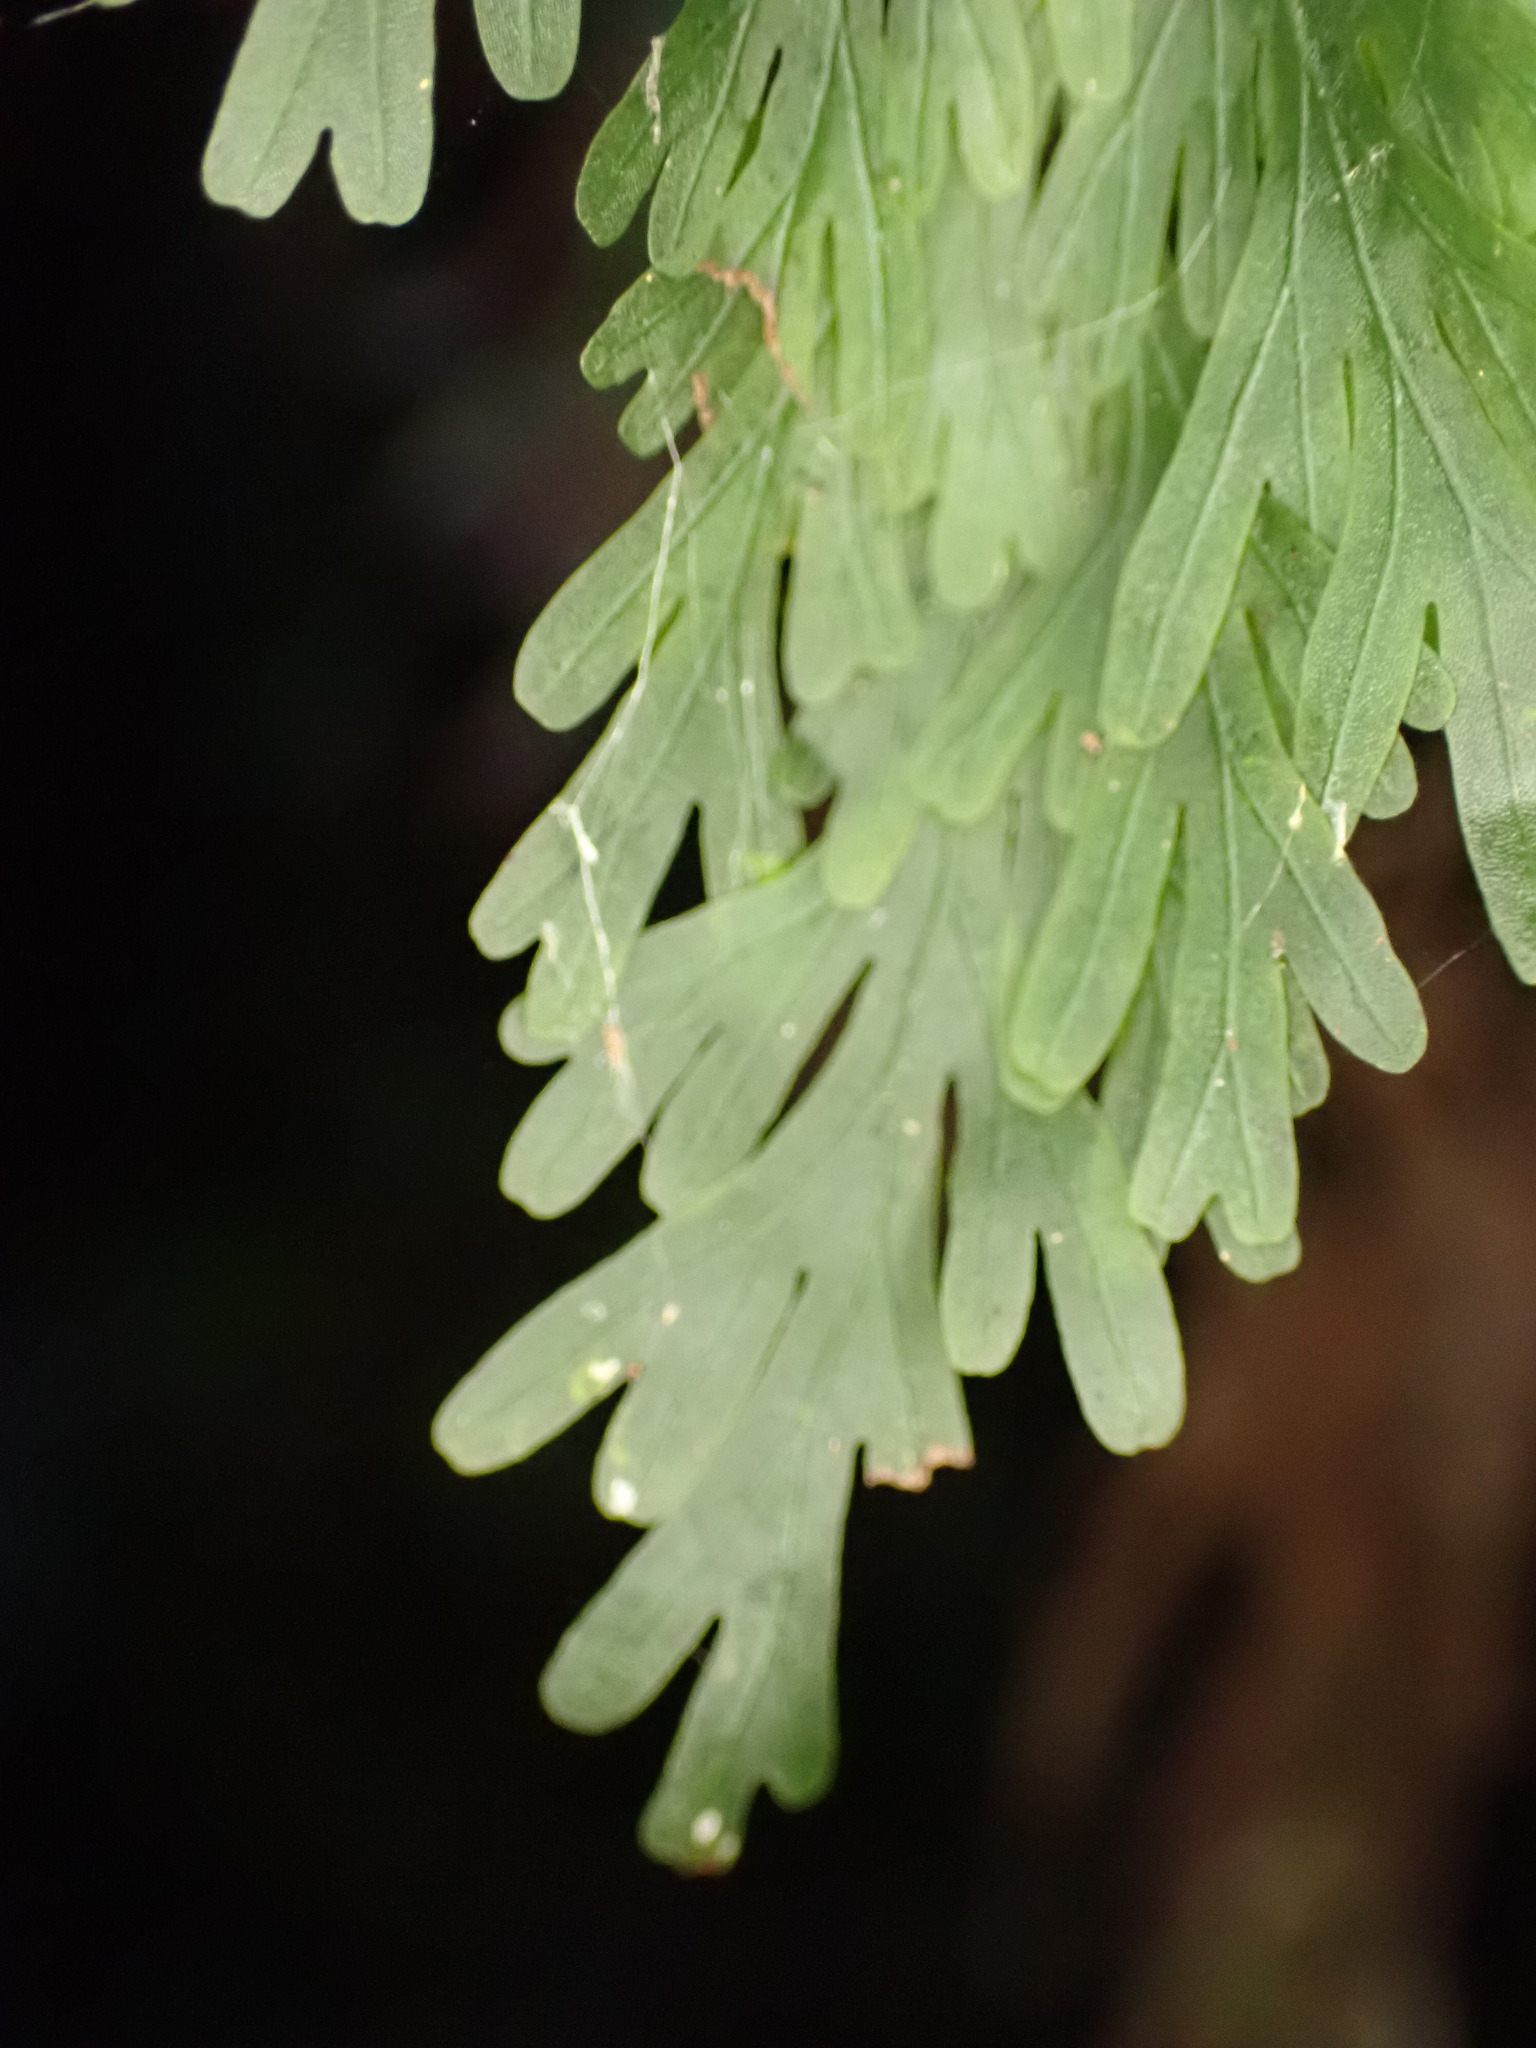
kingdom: Plantae
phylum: Tracheophyta
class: Polypodiopsida
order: Hymenophyllales
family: Hymenophyllaceae
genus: Hymenophyllum
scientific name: Hymenophyllum flabellatum
